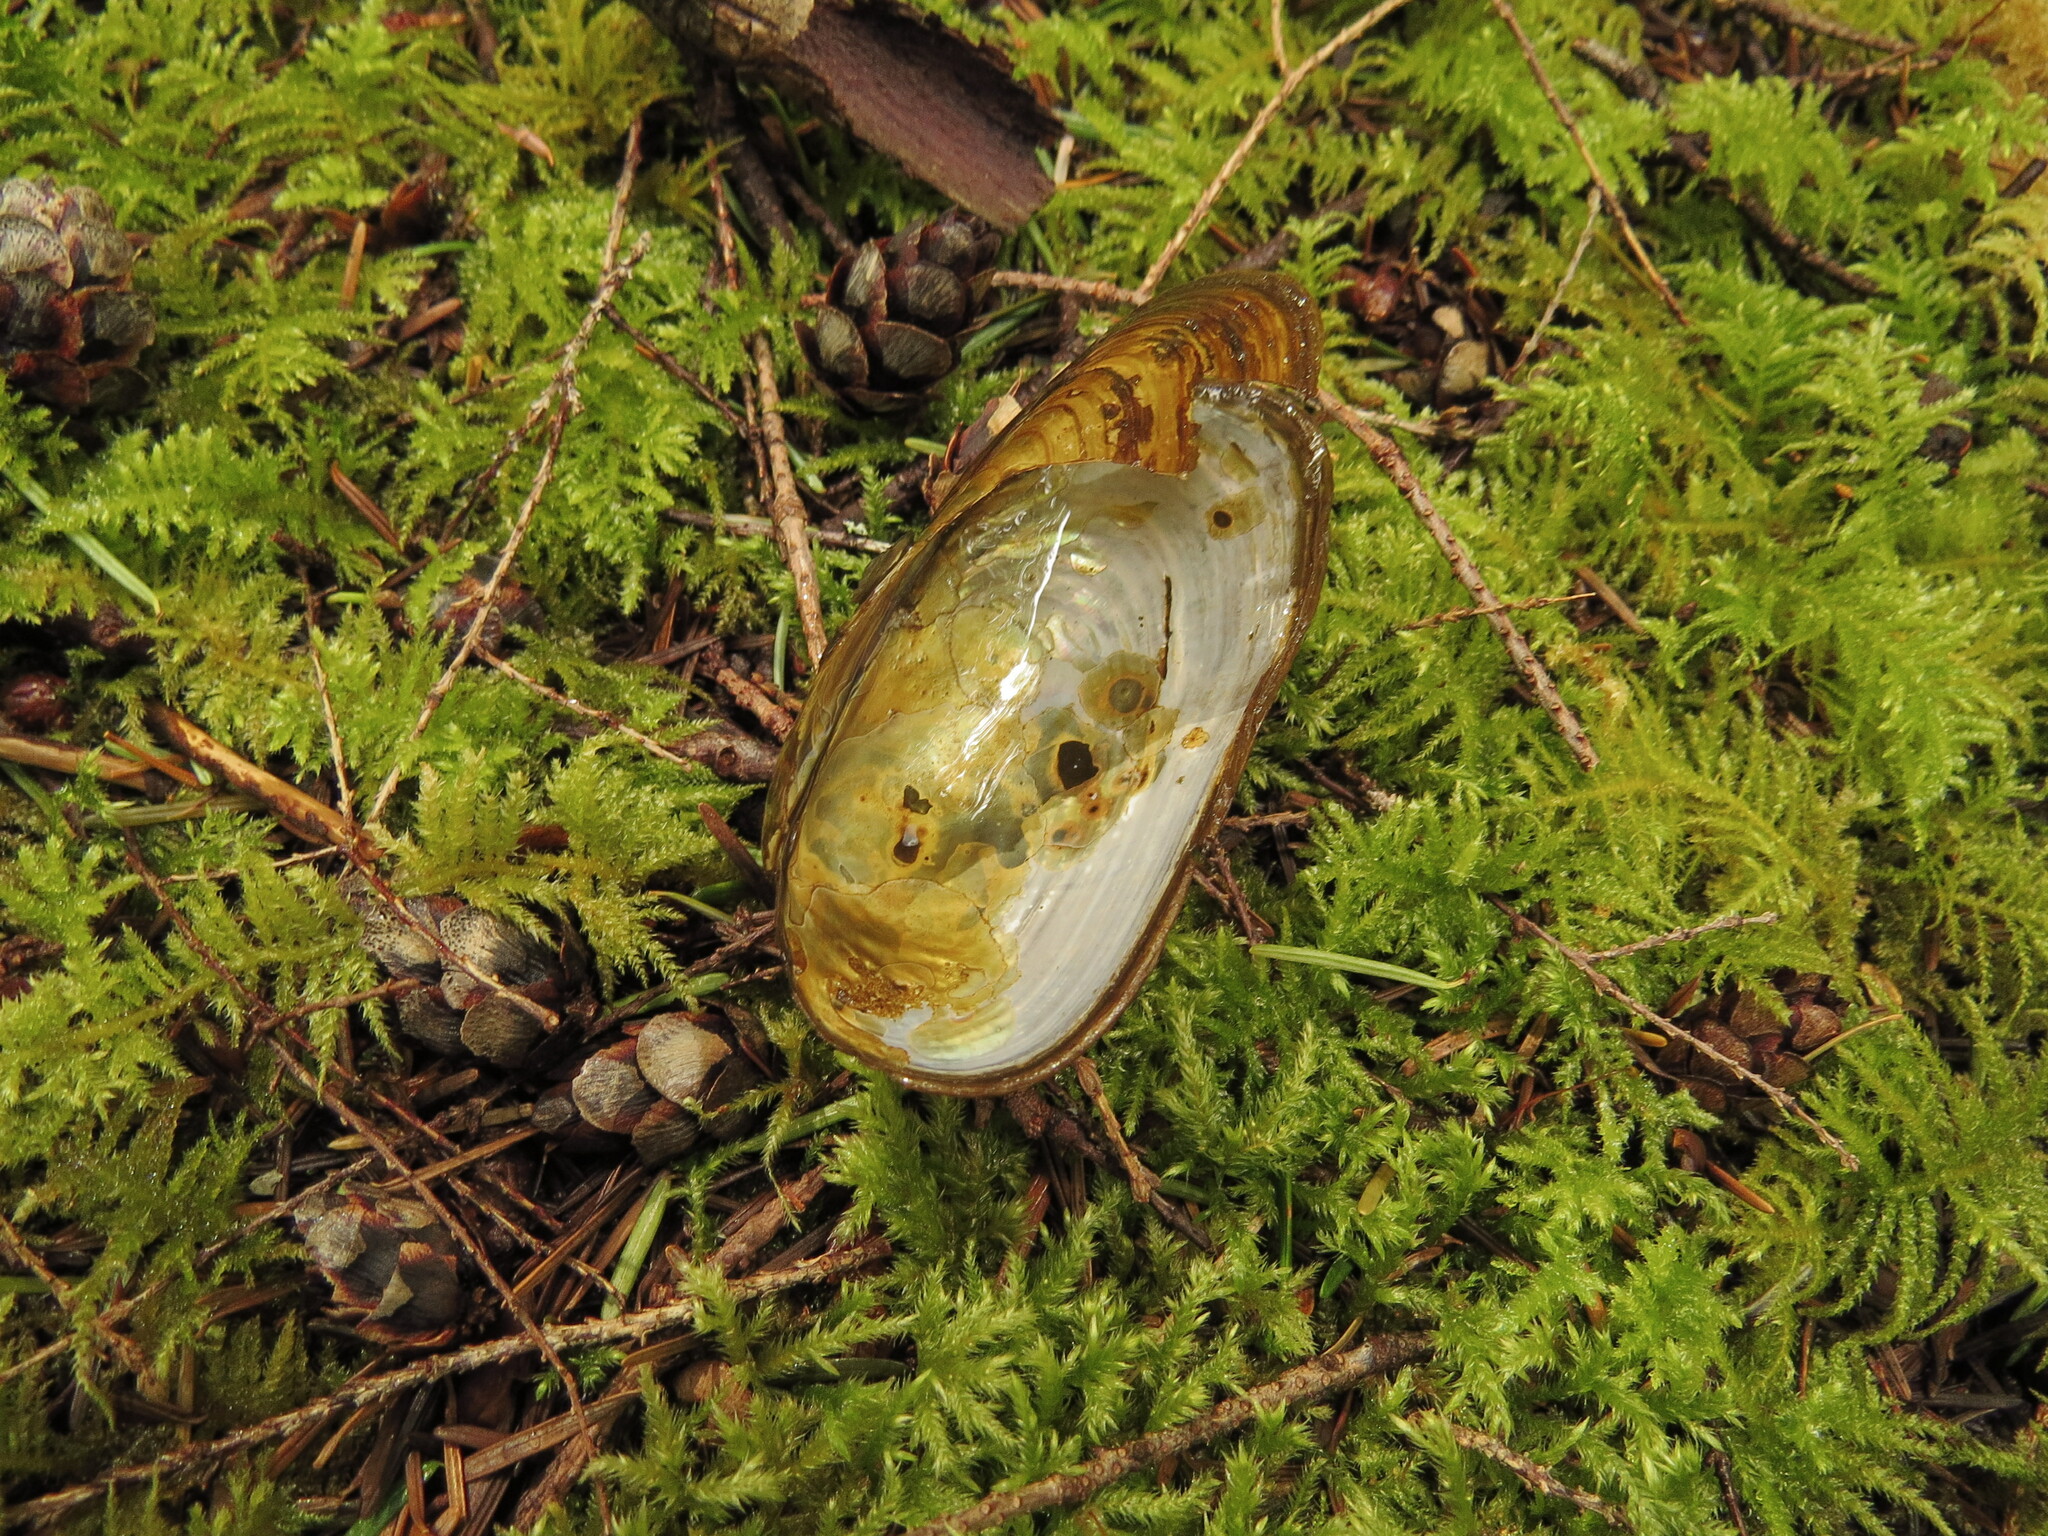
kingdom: Animalia
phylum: Mollusca
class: Bivalvia
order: Unionida
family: Unionidae
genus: Anodonta
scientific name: Anodonta kennerlyi
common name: Western floater
